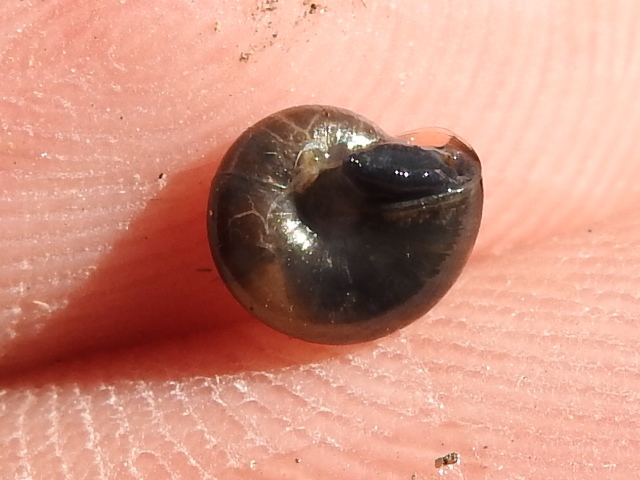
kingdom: Animalia
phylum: Mollusca
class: Gastropoda
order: Stylommatophora
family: Gastrodontidae
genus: Zonitoides
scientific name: Zonitoides arboreus
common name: Quick gloss
